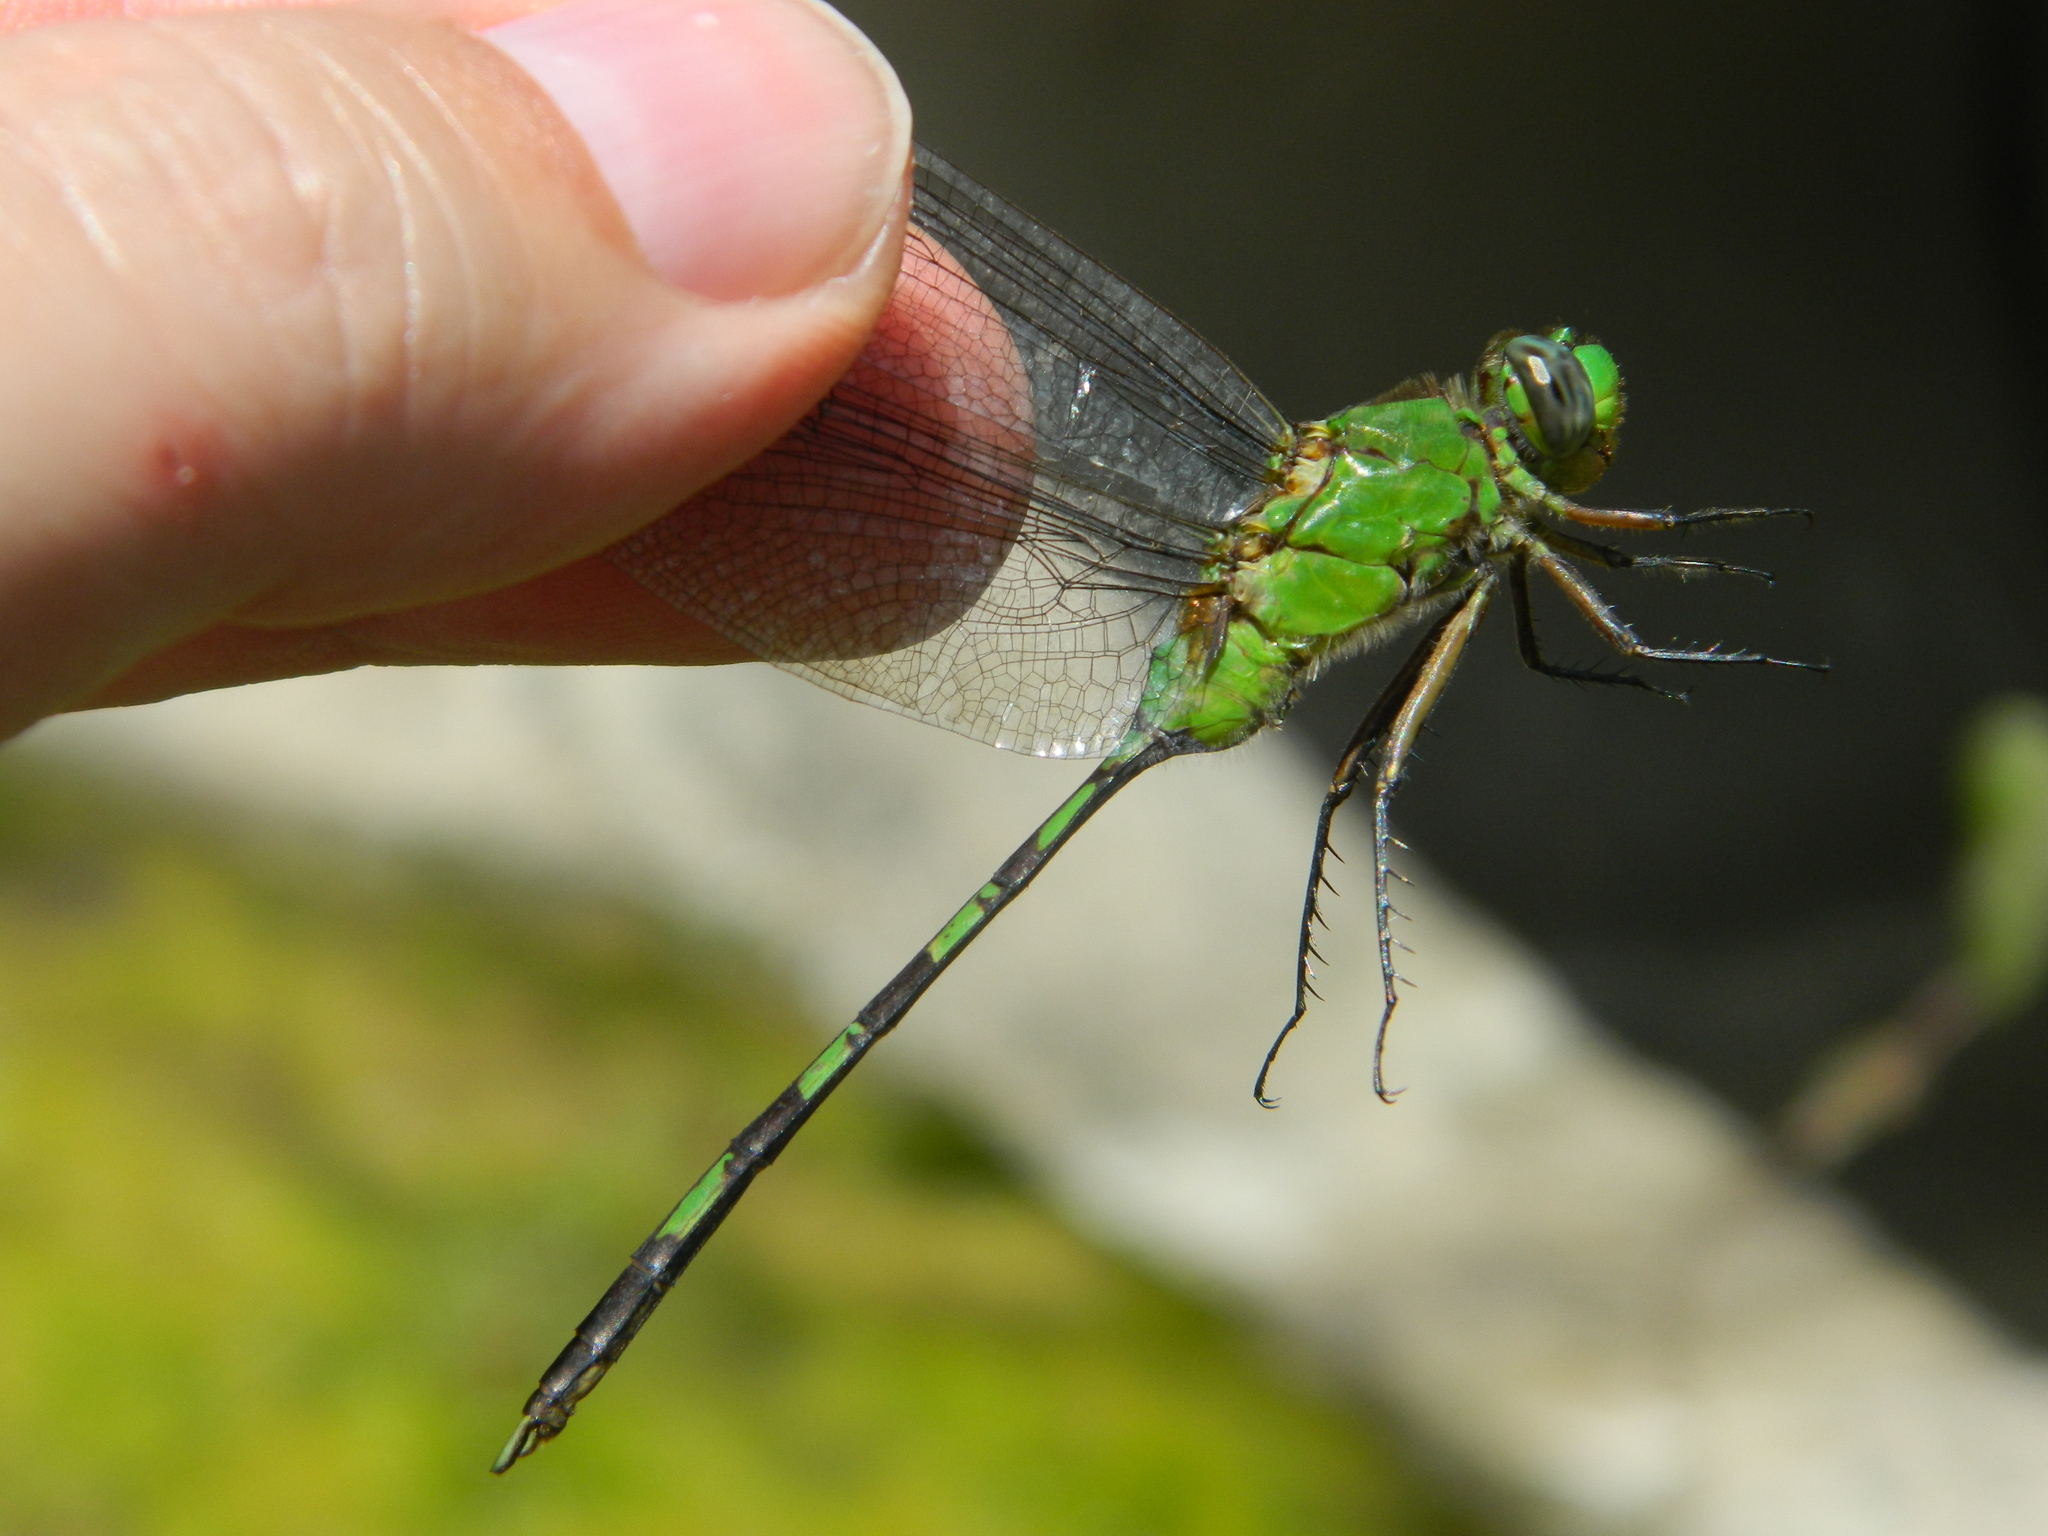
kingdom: Animalia
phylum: Arthropoda
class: Insecta
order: Odonata
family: Libellulidae
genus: Erythemis
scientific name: Erythemis vesiculosa
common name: Great pondhawk
